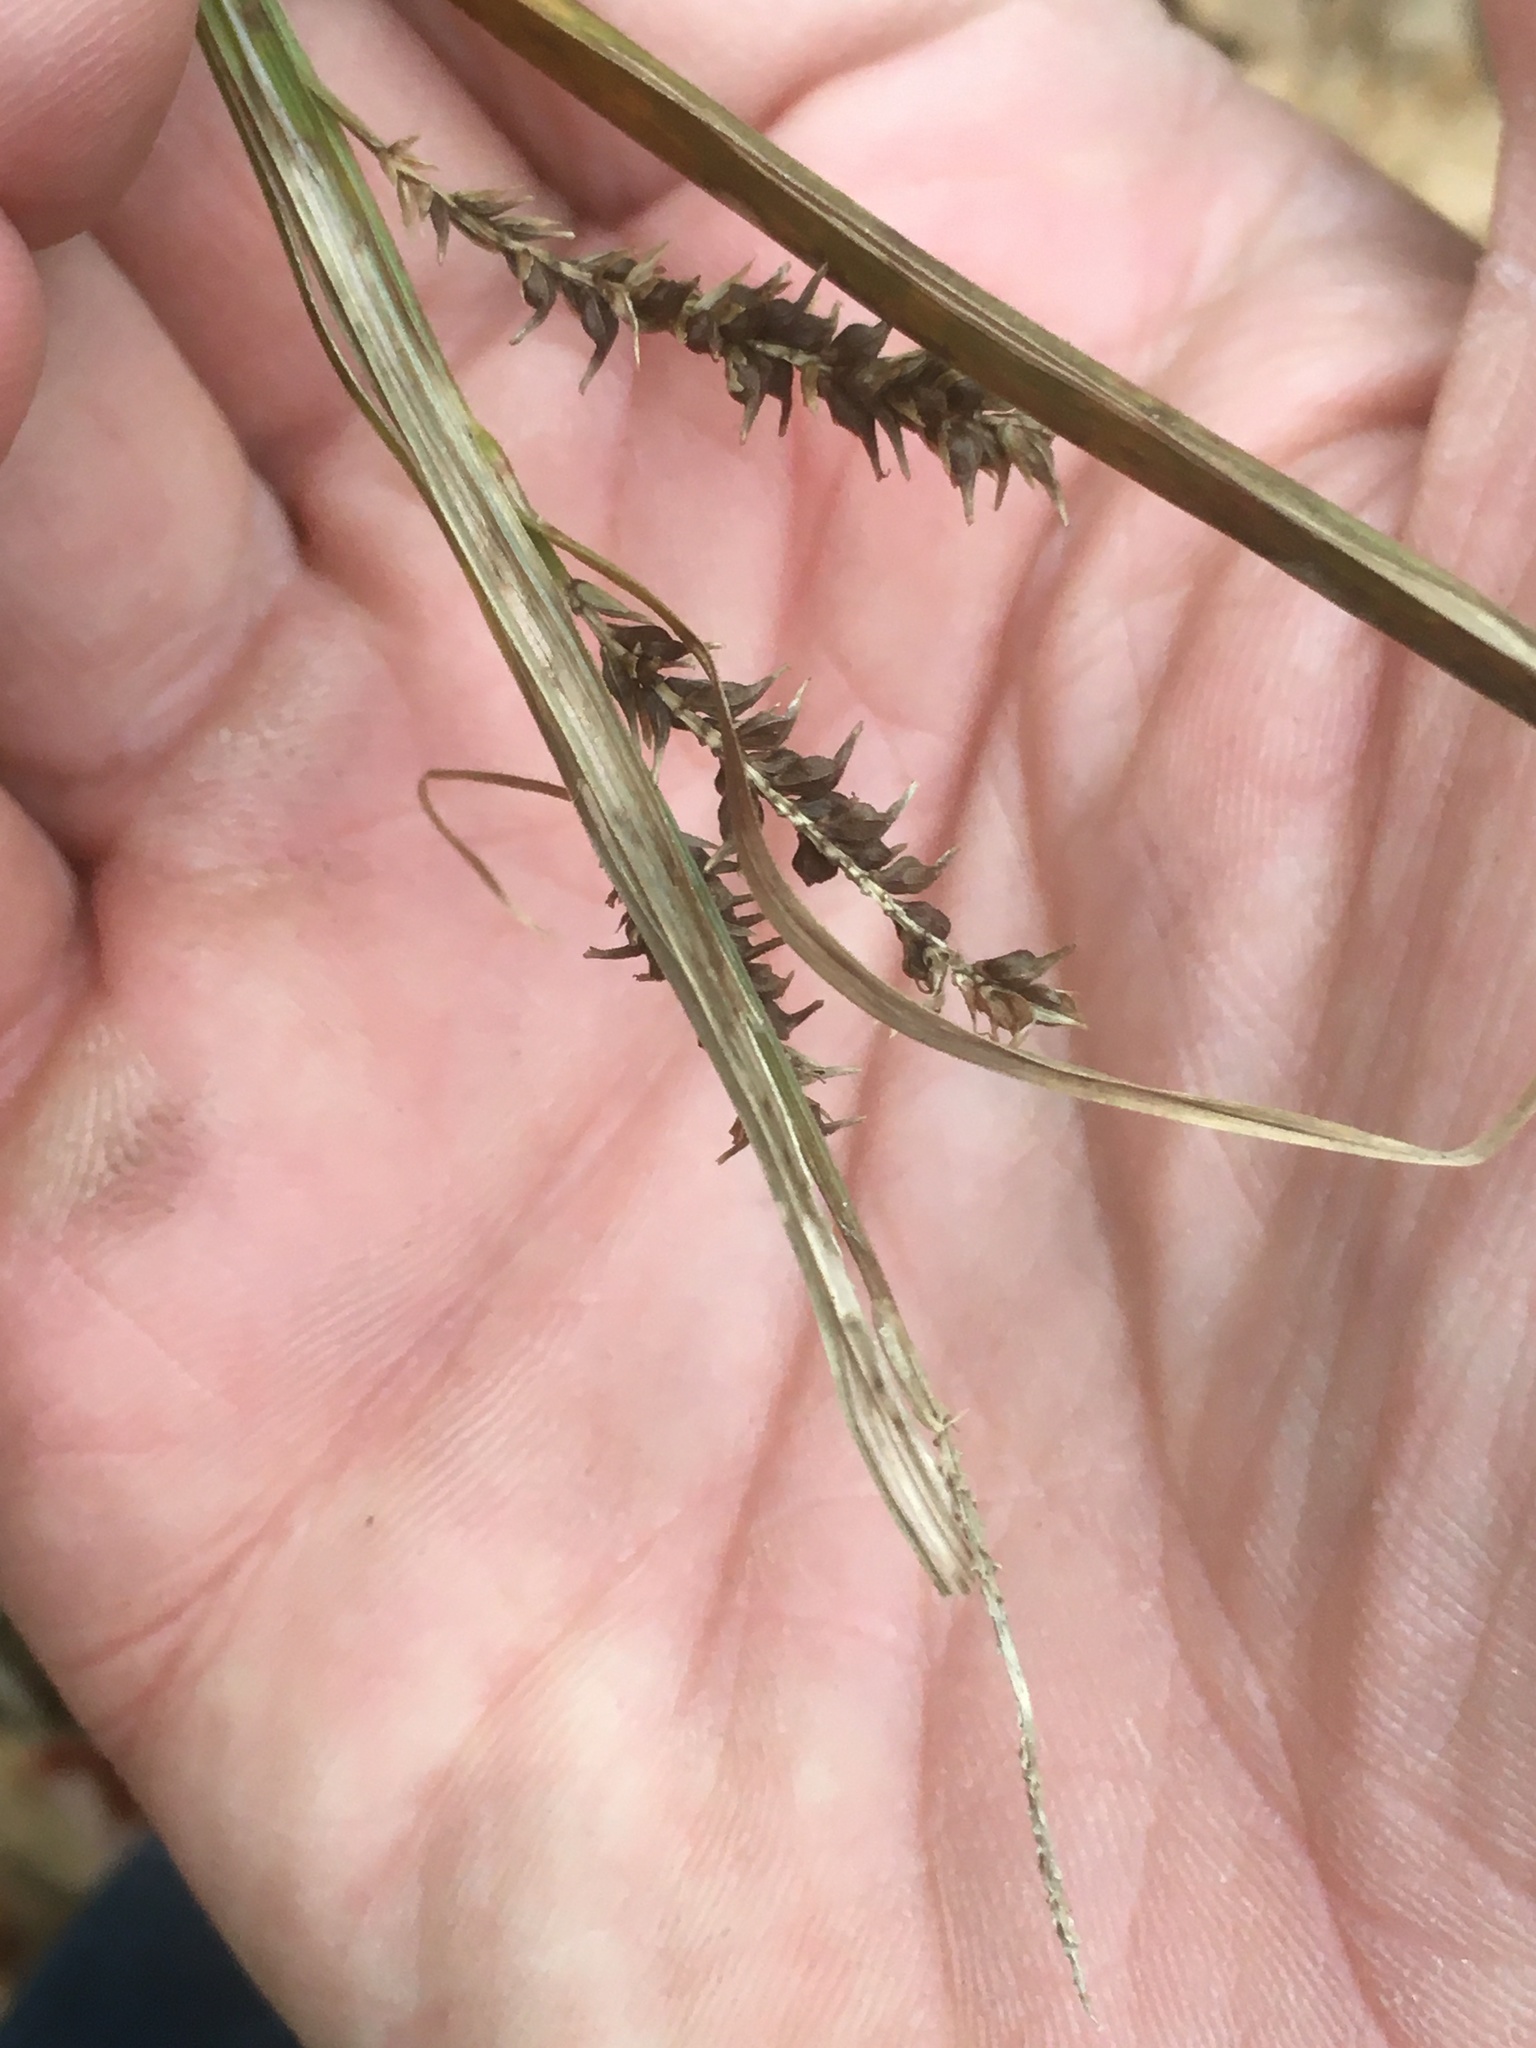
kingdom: Plantae
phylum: Tracheophyta
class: Liliopsida
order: Poales
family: Cyperaceae
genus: Carex
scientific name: Carex scabrata
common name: Eastern rough sedge
